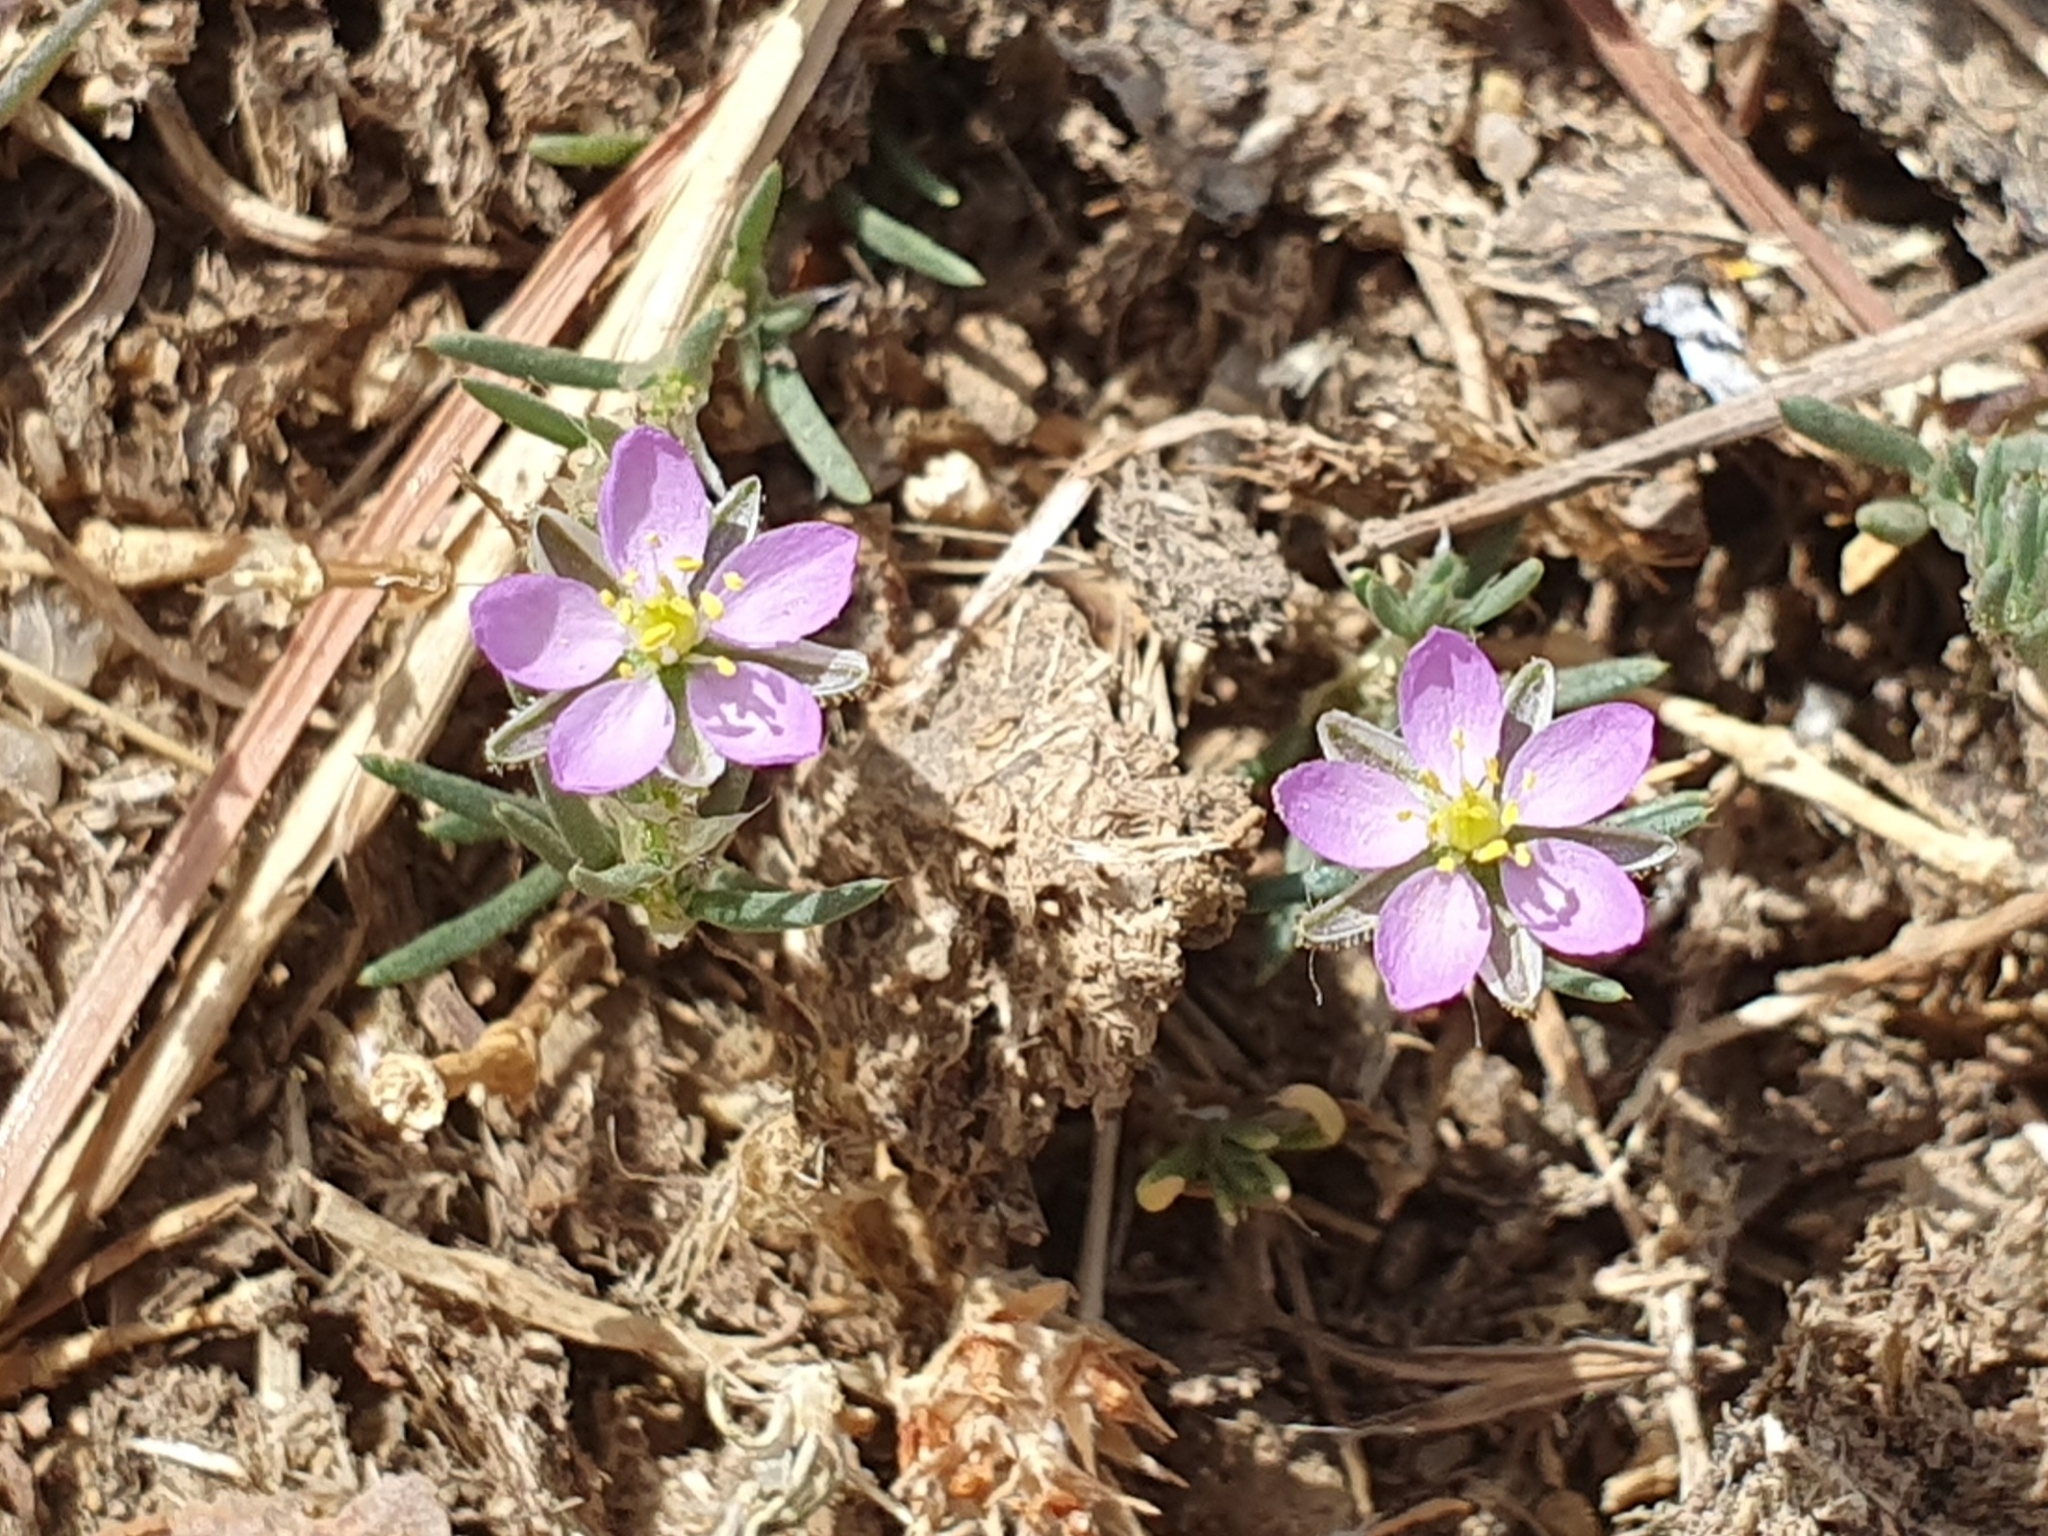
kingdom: Plantae
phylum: Tracheophyta
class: Magnoliopsida
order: Caryophyllales
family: Caryophyllaceae
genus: Spergularia
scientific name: Spergularia rubra
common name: Red sand-spurrey
